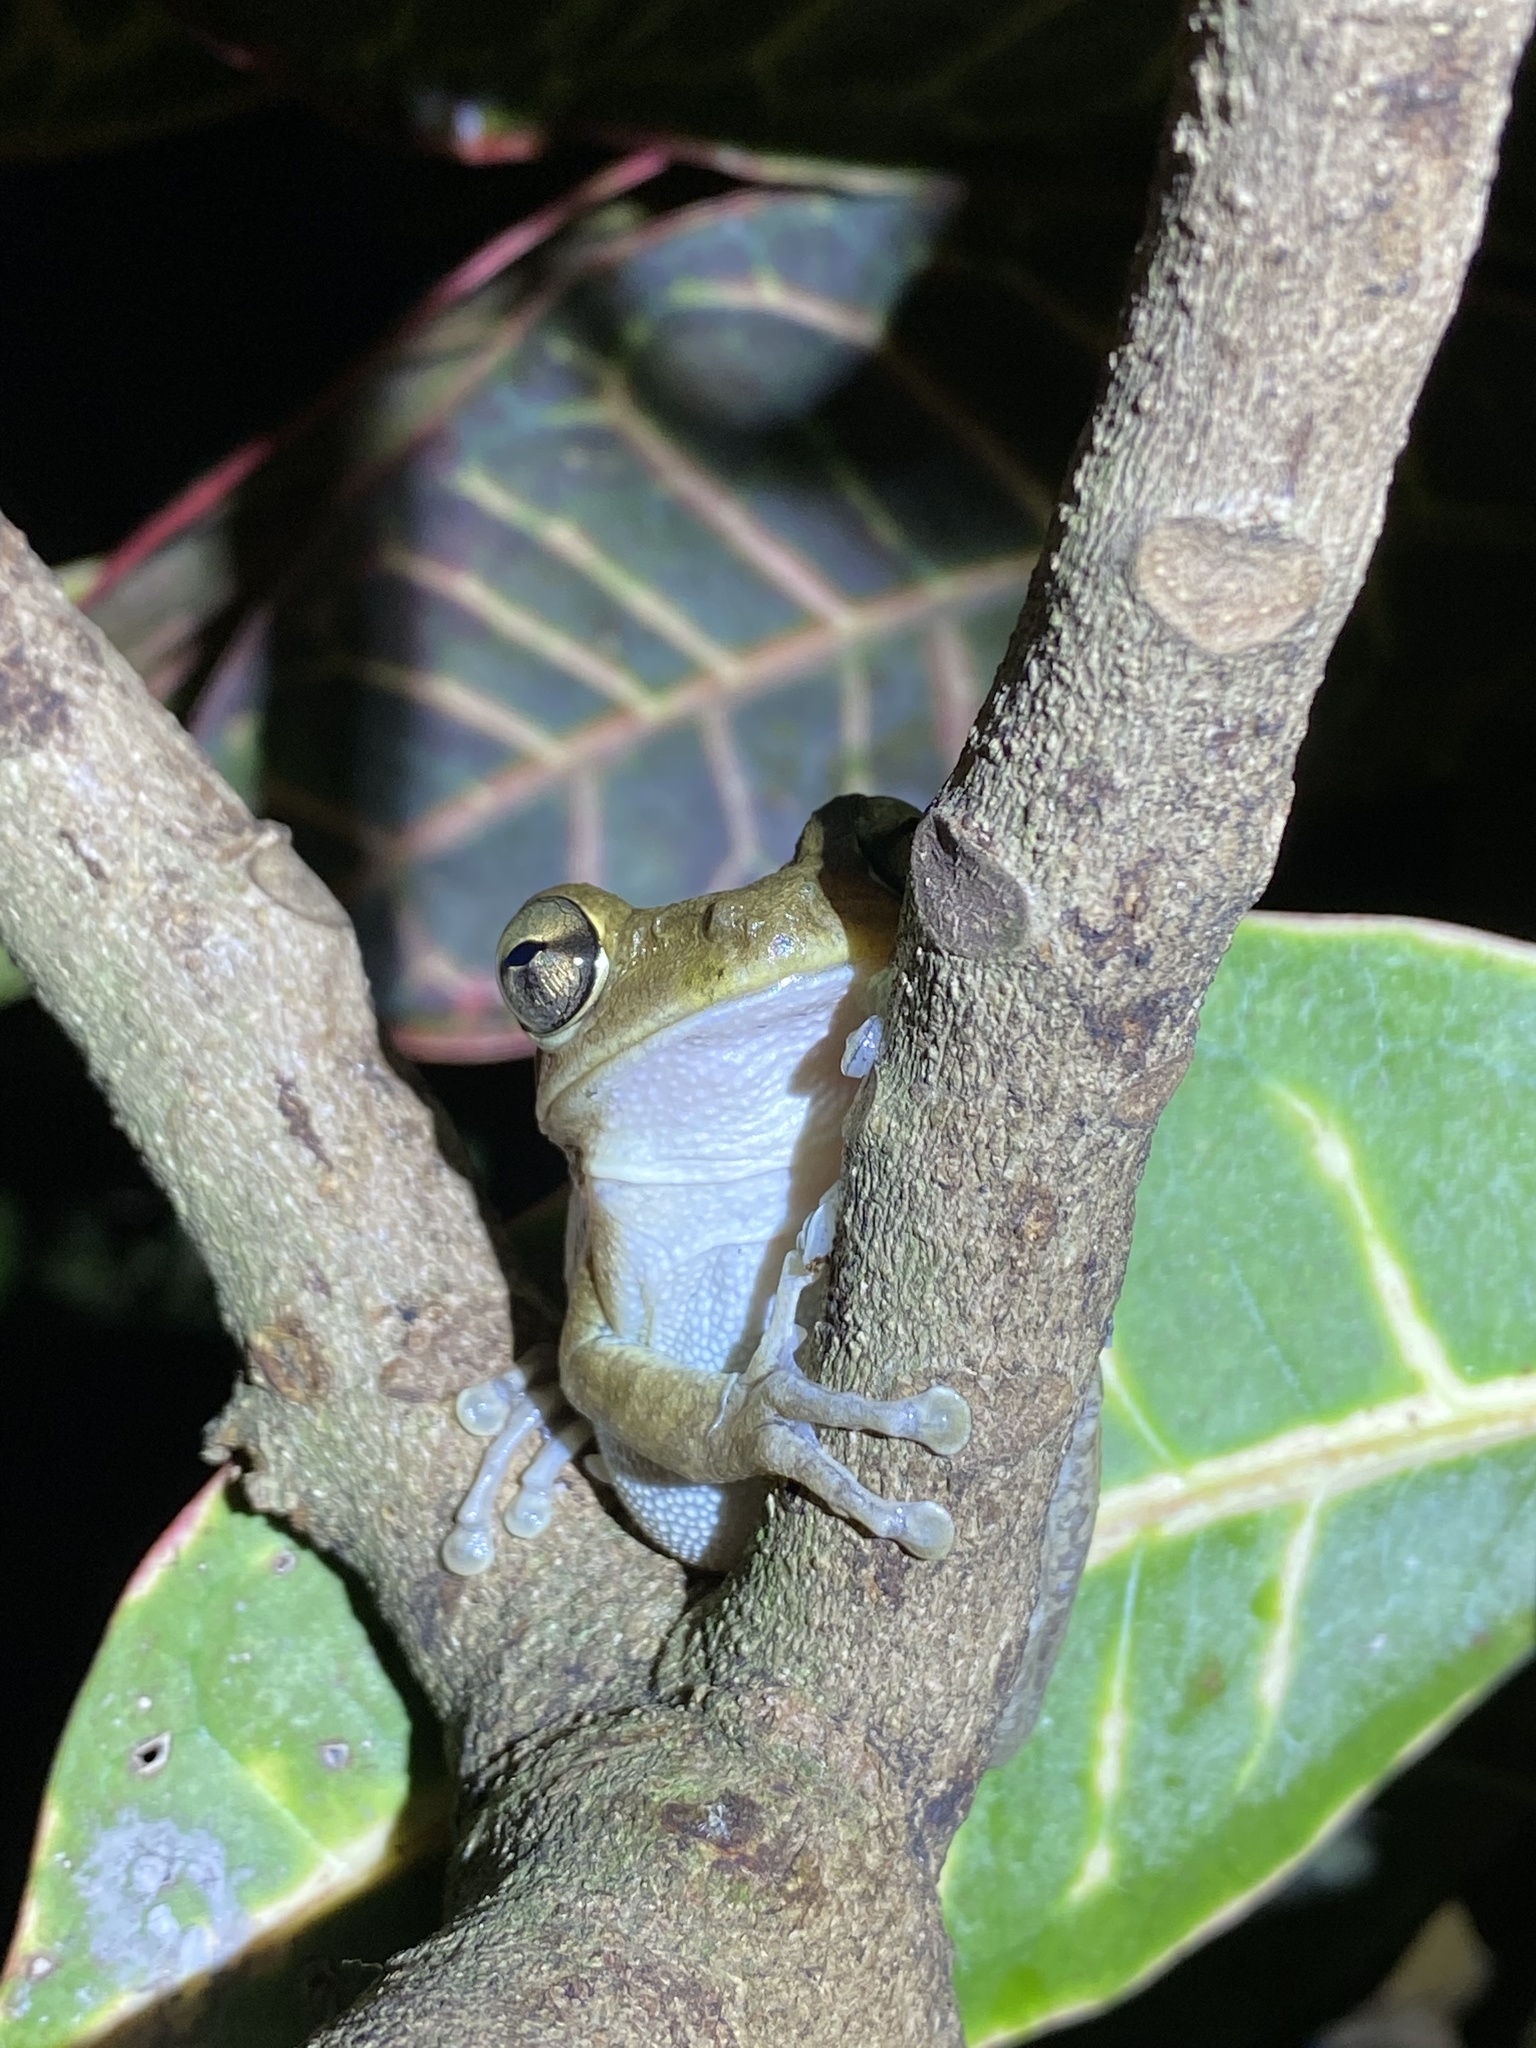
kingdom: Animalia
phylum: Chordata
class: Amphibia
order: Anura
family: Hylidae
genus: Osteopilus
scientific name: Osteopilus septentrionalis
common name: Cuban treefrog
